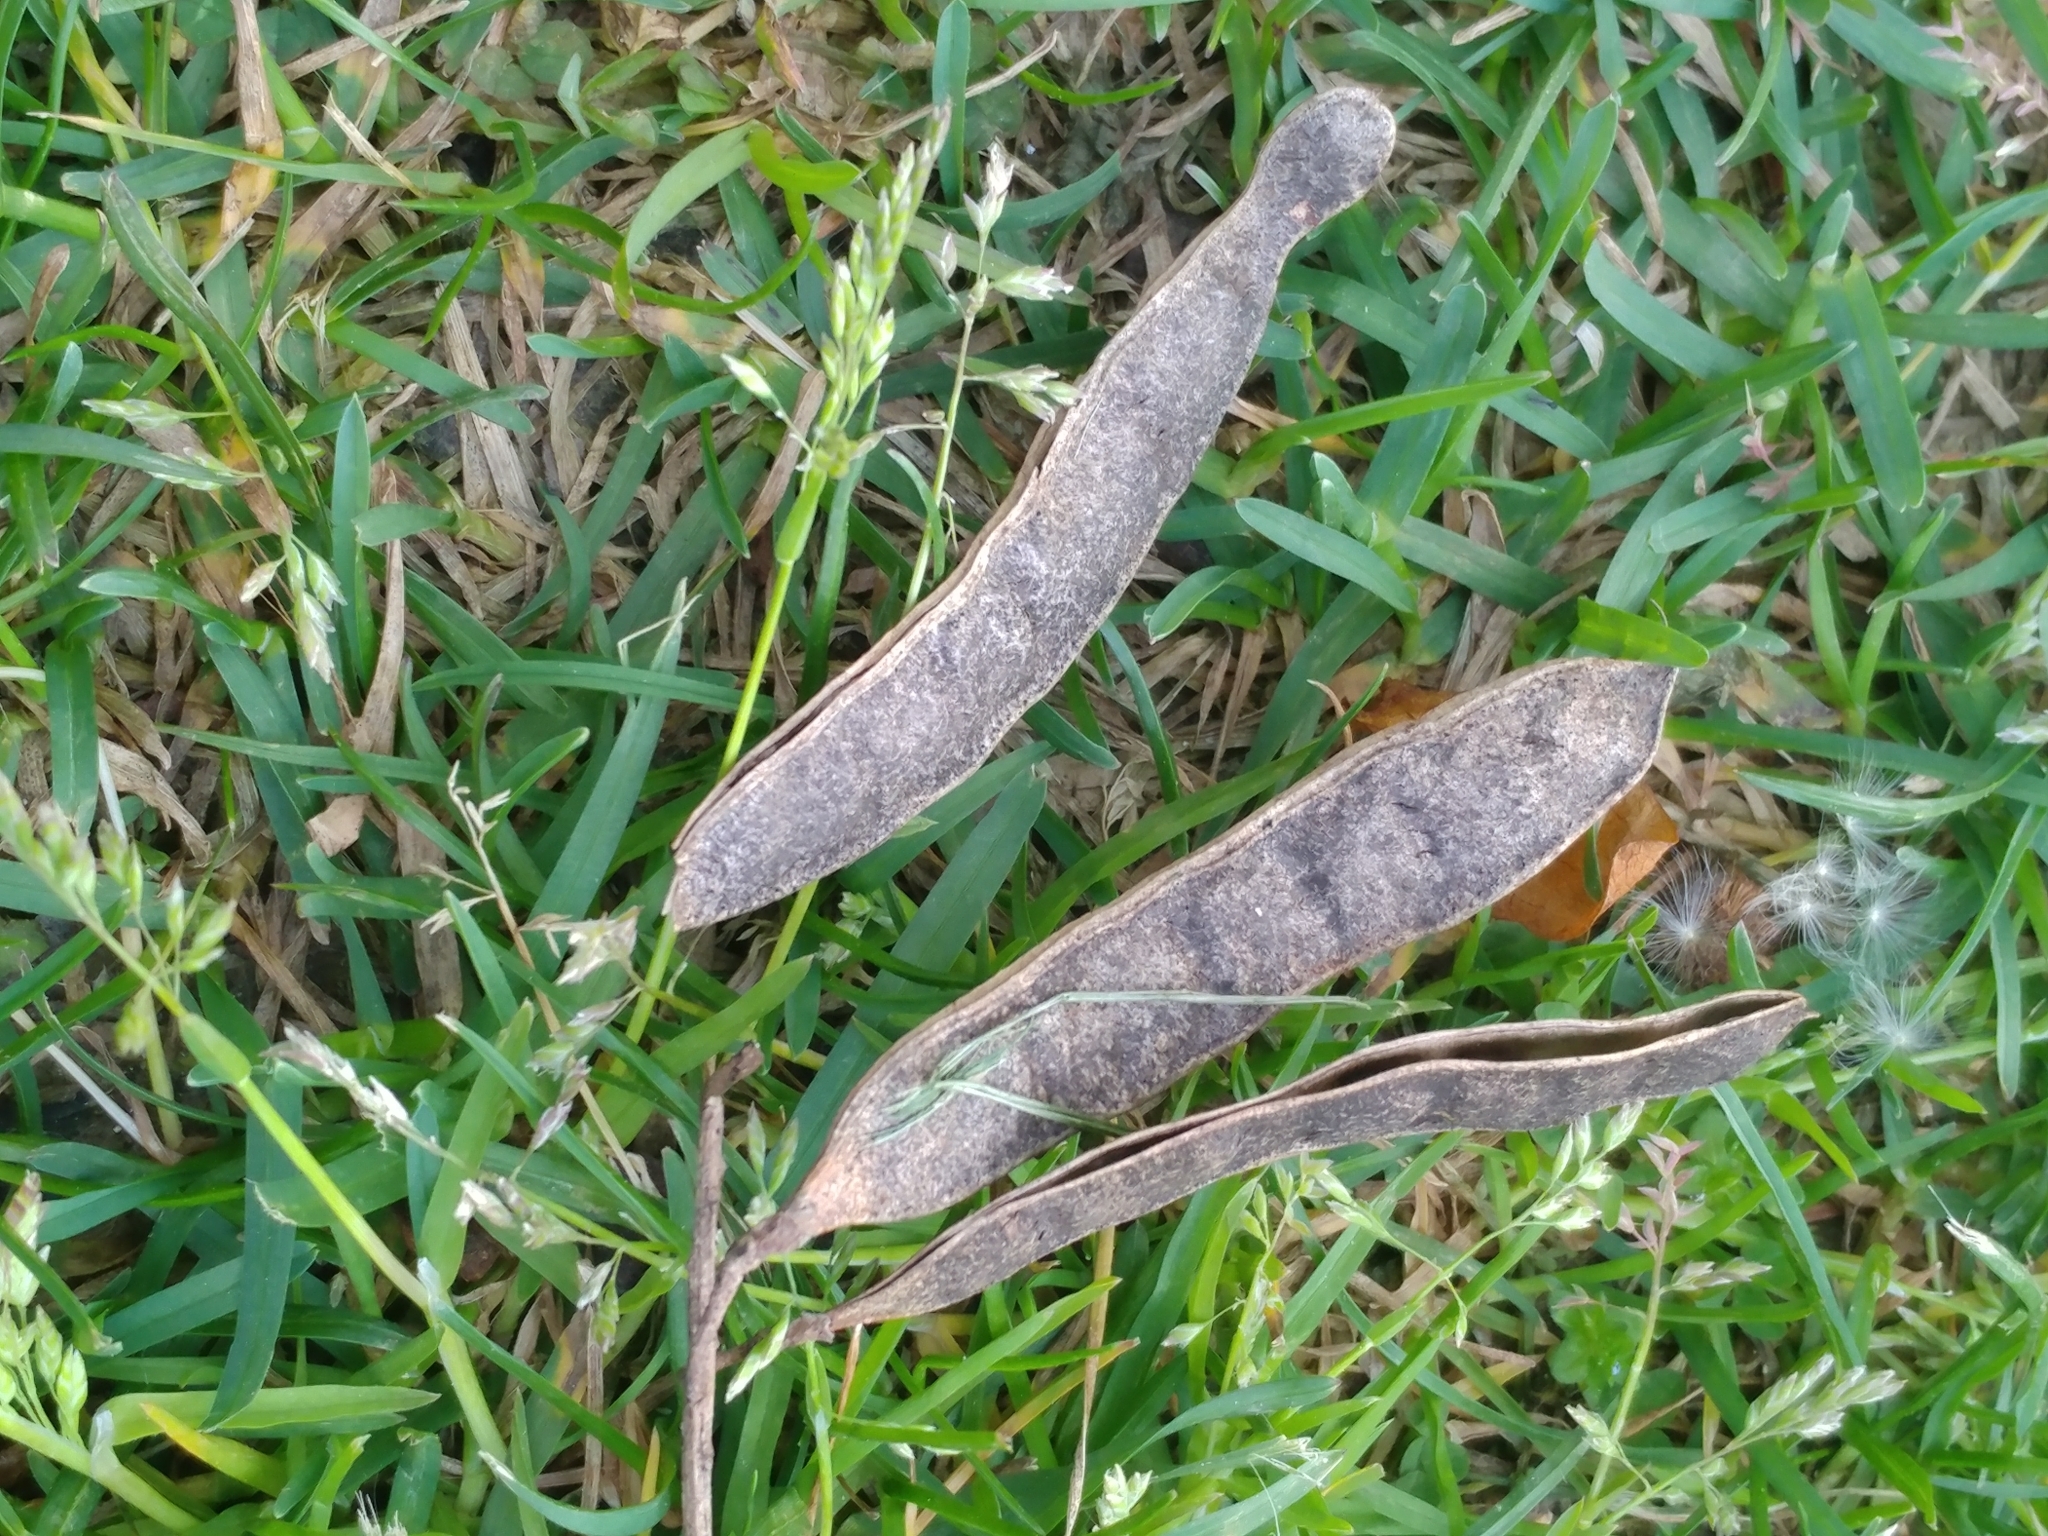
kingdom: Plantae
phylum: Tracheophyta
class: Magnoliopsida
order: Fabales
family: Fabaceae
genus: Gleditsia
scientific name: Gleditsia triacanthos
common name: Common honeylocust
